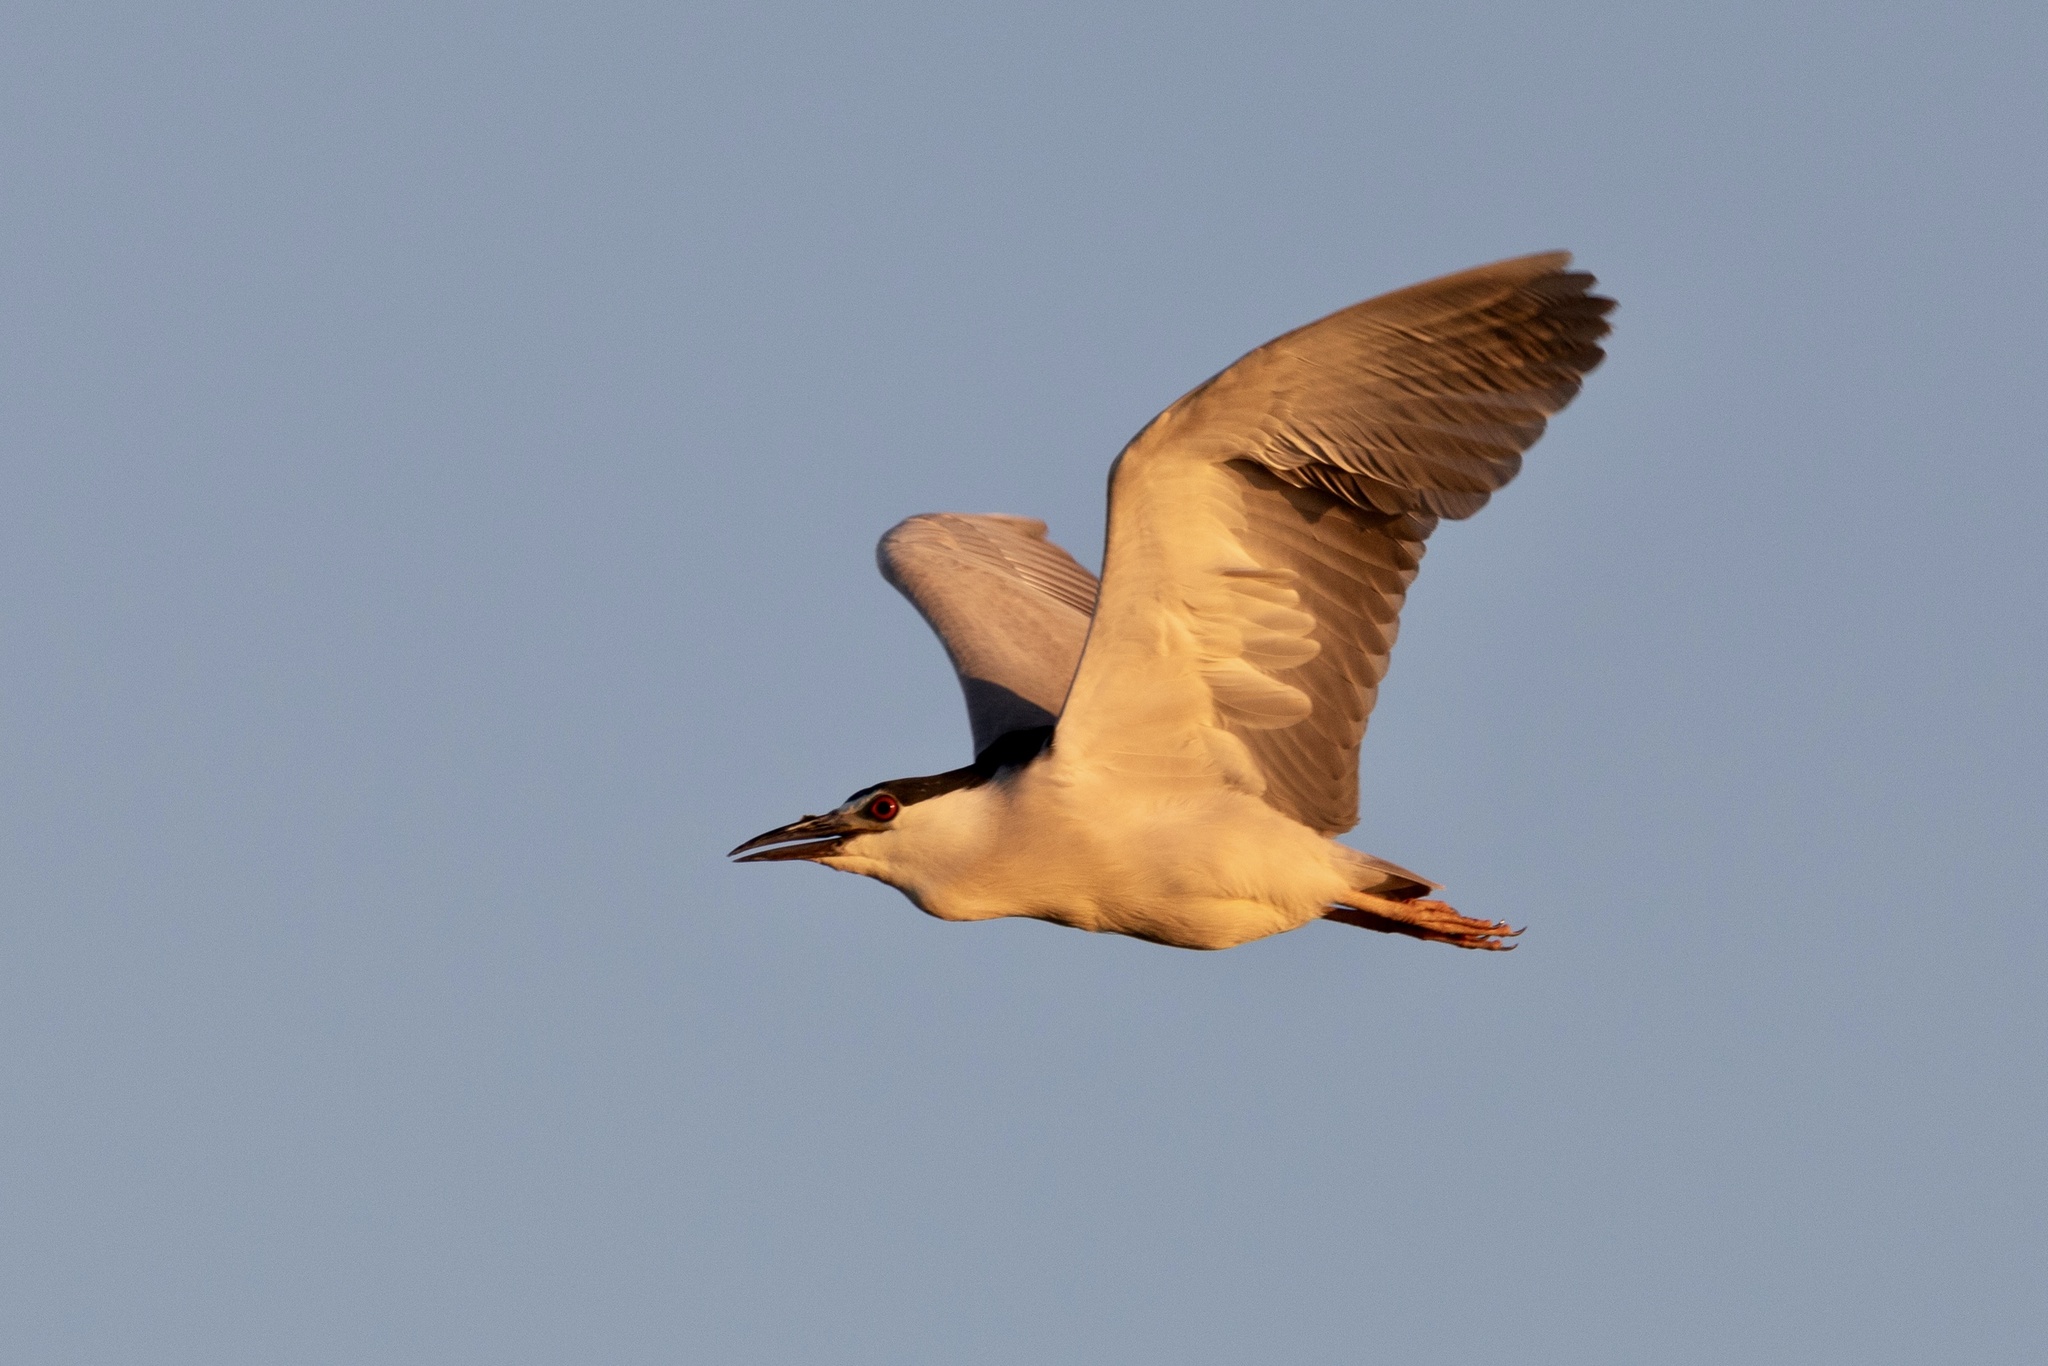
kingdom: Animalia
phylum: Chordata
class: Aves
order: Pelecaniformes
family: Ardeidae
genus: Nycticorax
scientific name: Nycticorax nycticorax
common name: Black-crowned night heron
